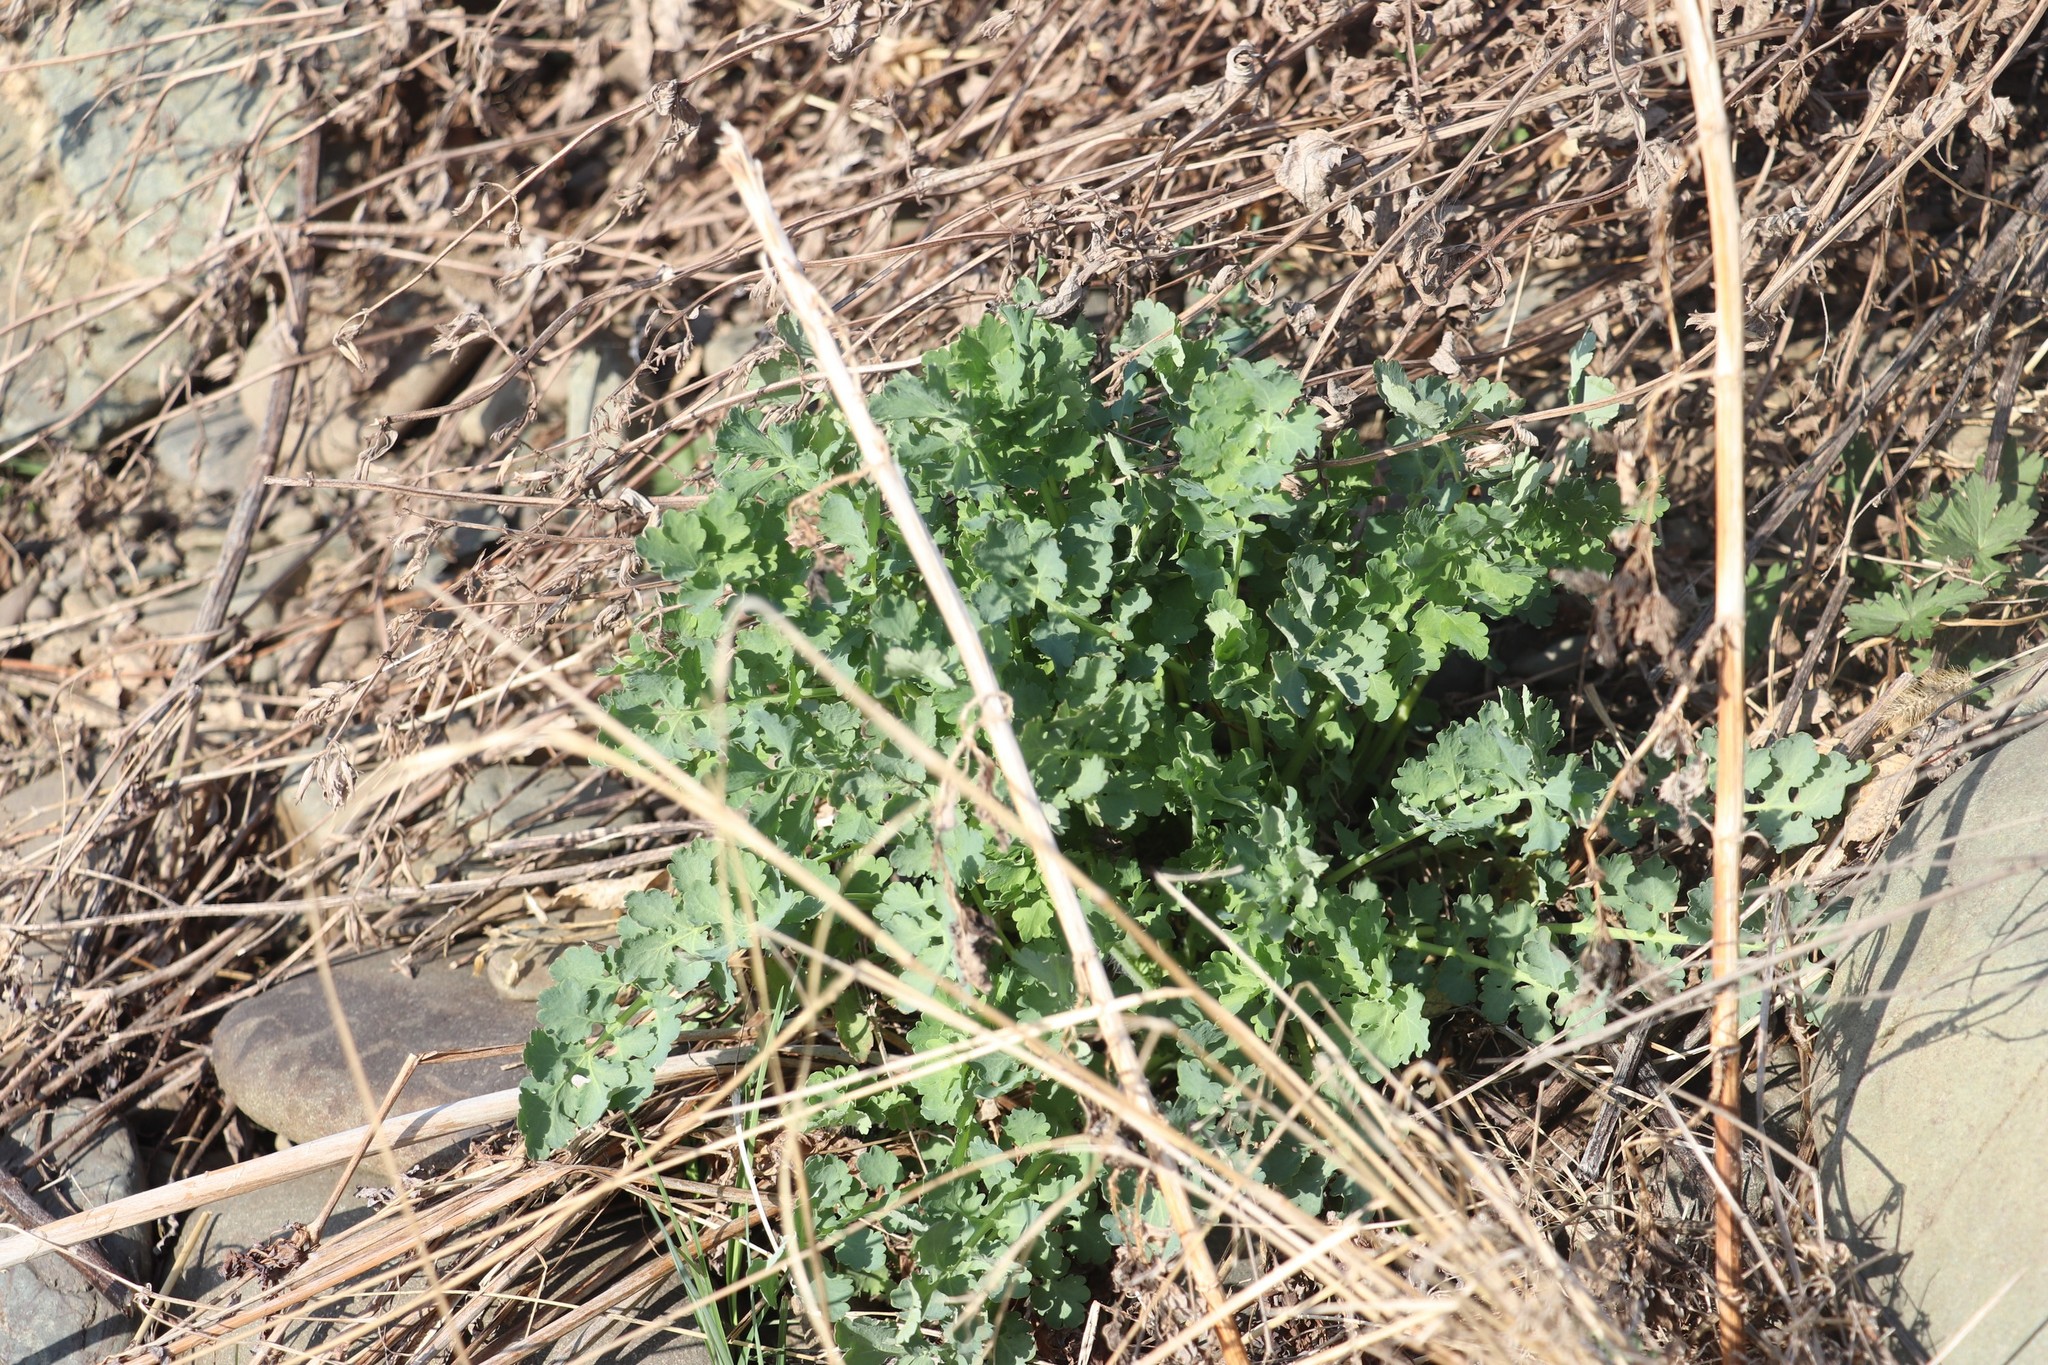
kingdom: Plantae
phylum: Tracheophyta
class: Magnoliopsida
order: Ranunculales
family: Papaveraceae
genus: Chelidonium
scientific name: Chelidonium majus
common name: Greater celandine
